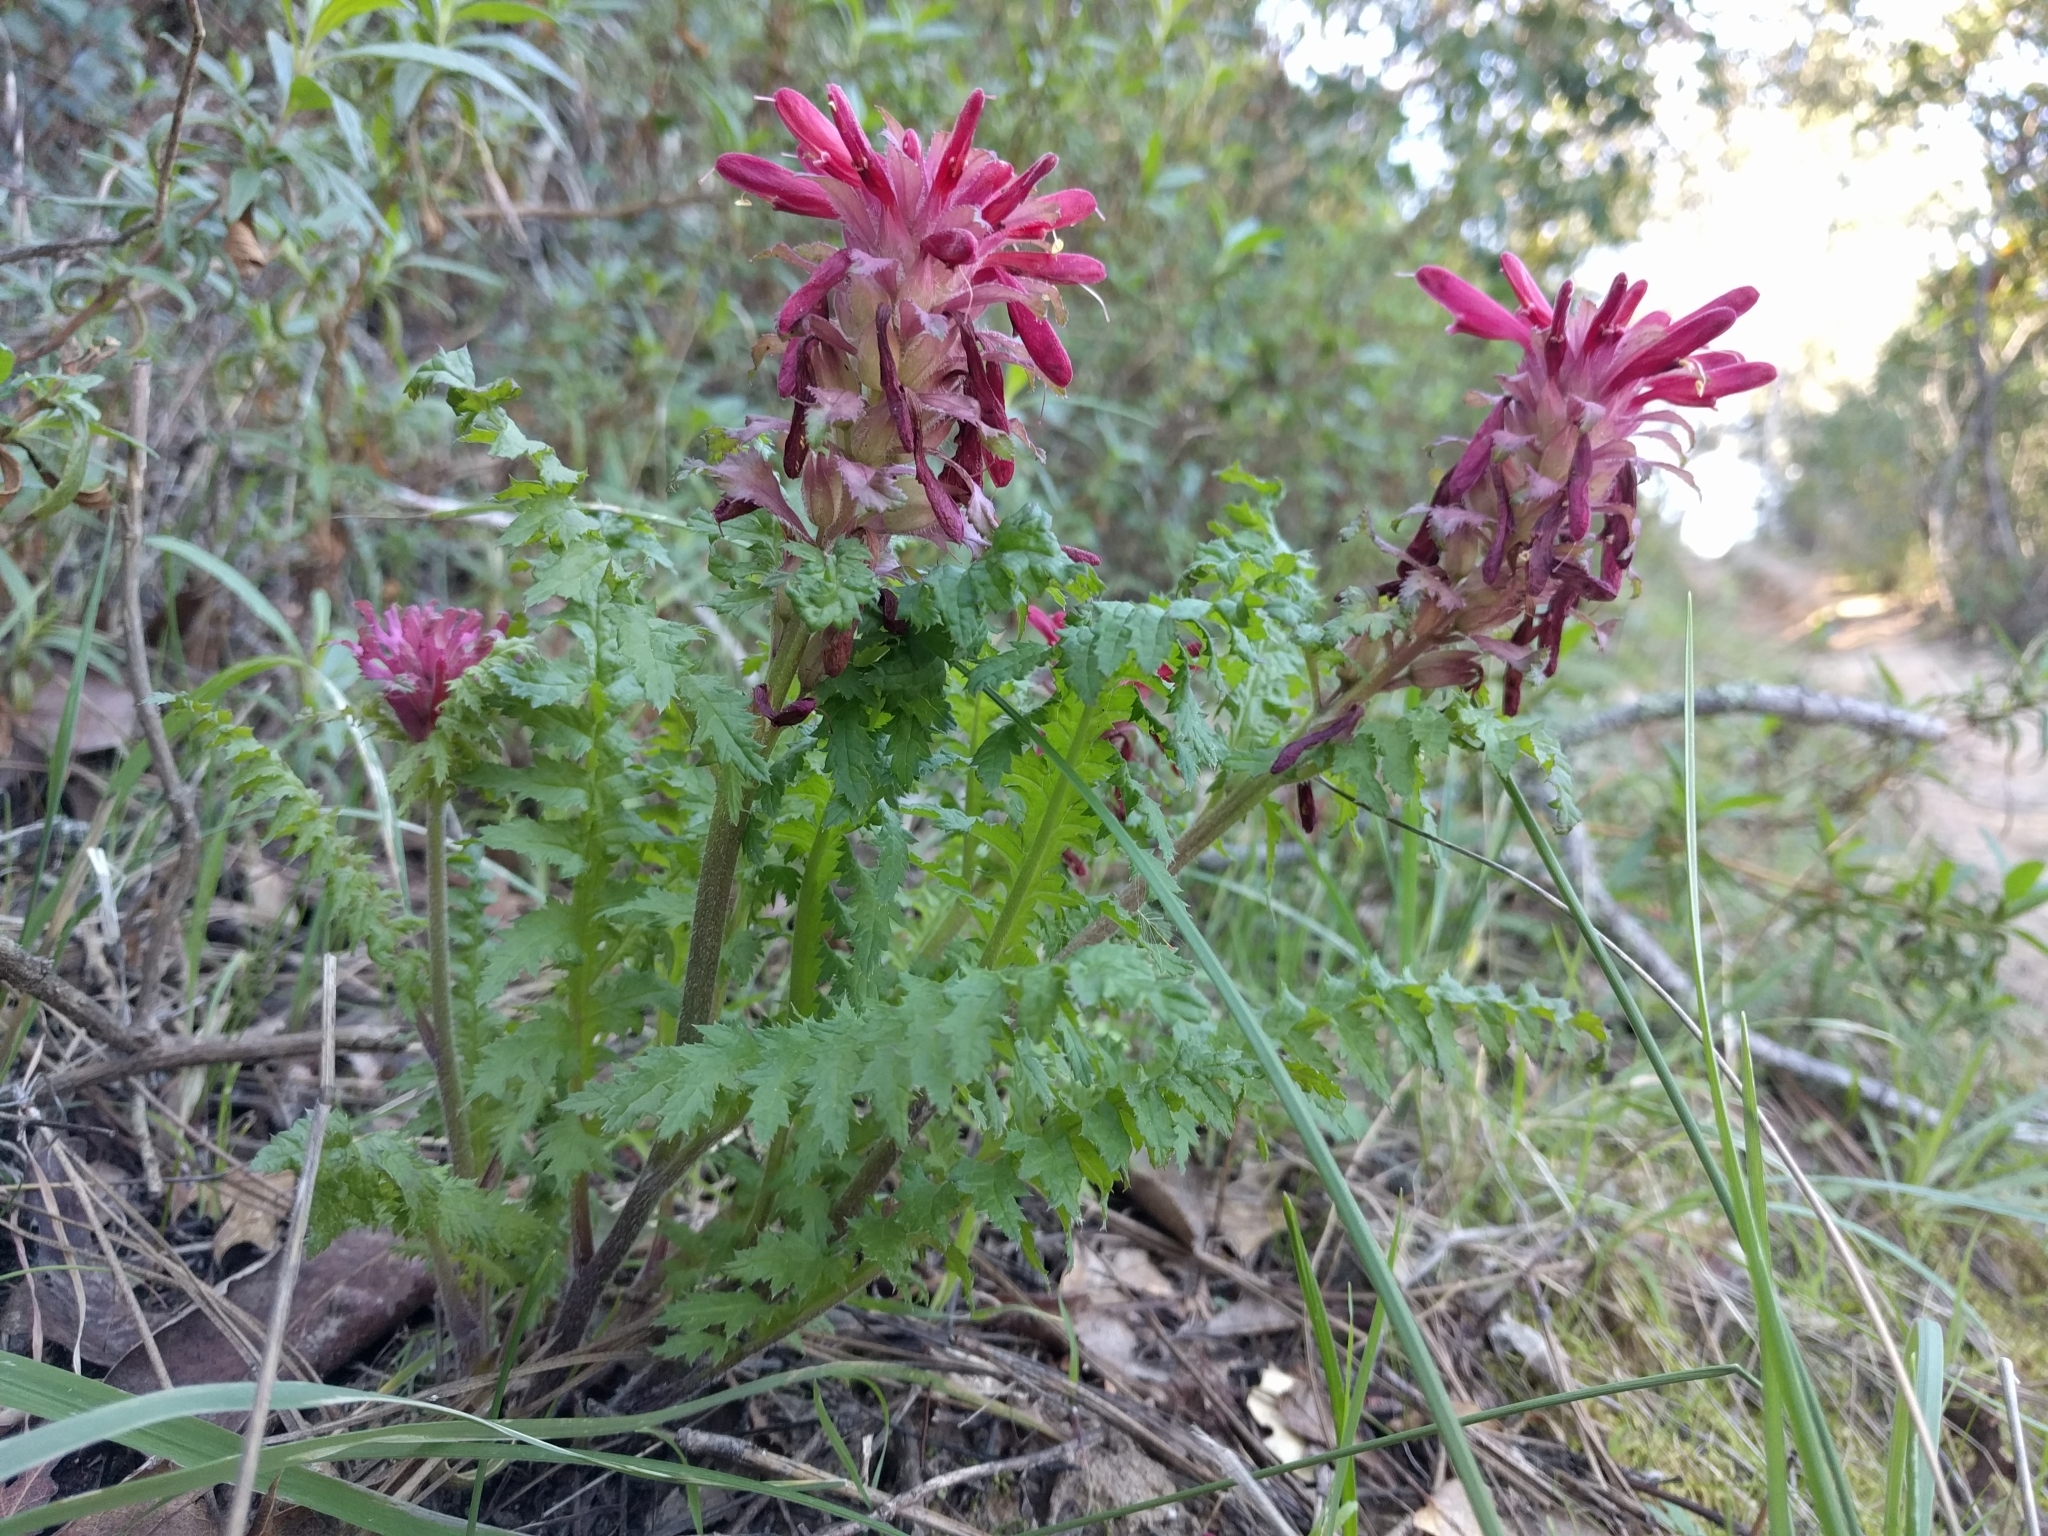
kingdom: Plantae
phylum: Tracheophyta
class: Magnoliopsida
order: Lamiales
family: Orobanchaceae
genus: Pedicularis
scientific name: Pedicularis densiflora
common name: Indian warrior
